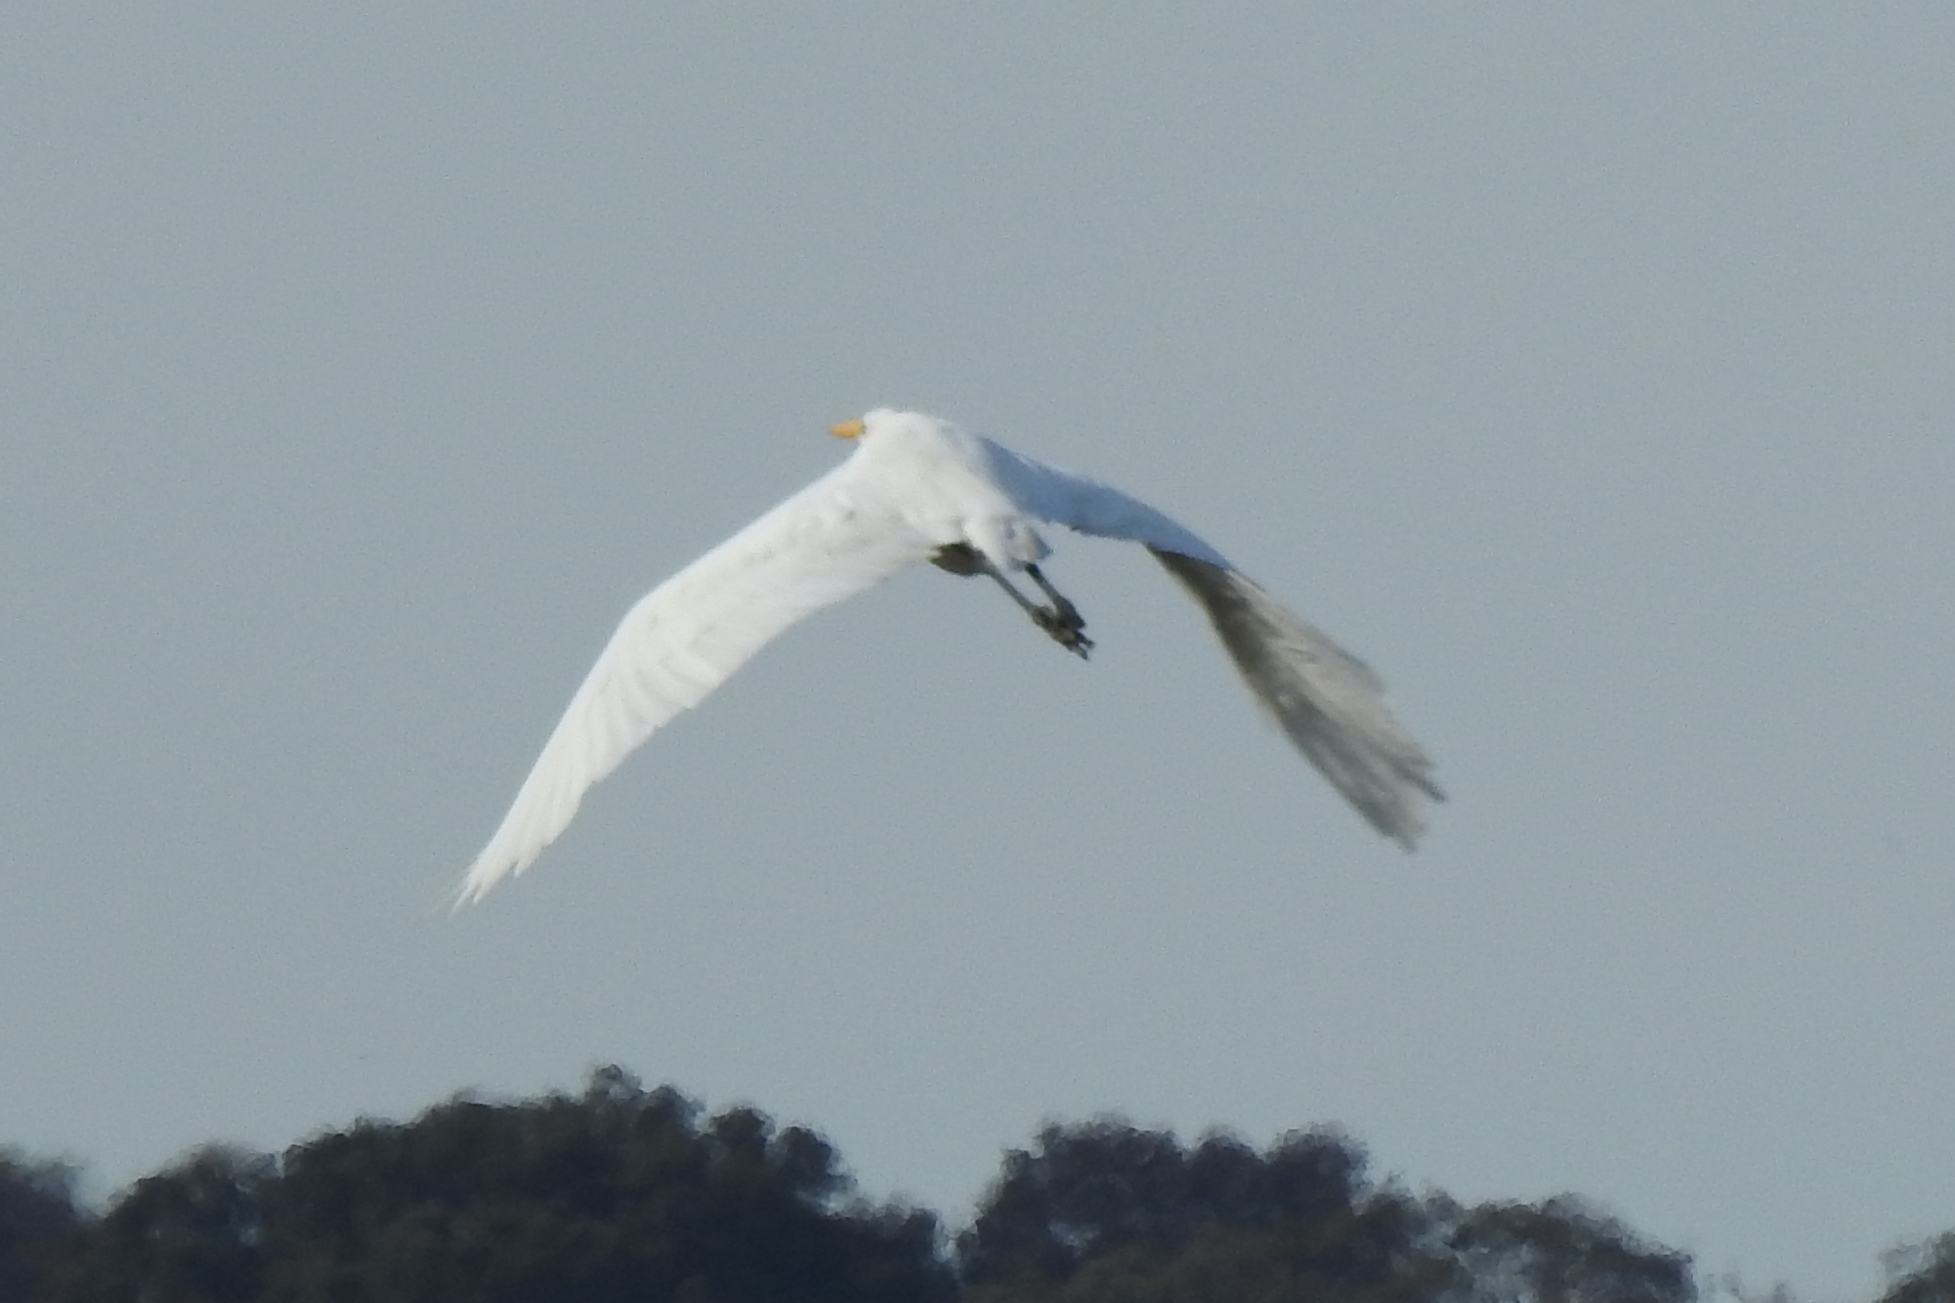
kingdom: Animalia
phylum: Chordata
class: Aves
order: Pelecaniformes
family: Ardeidae
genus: Ardea
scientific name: Ardea alba
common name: Great egret
